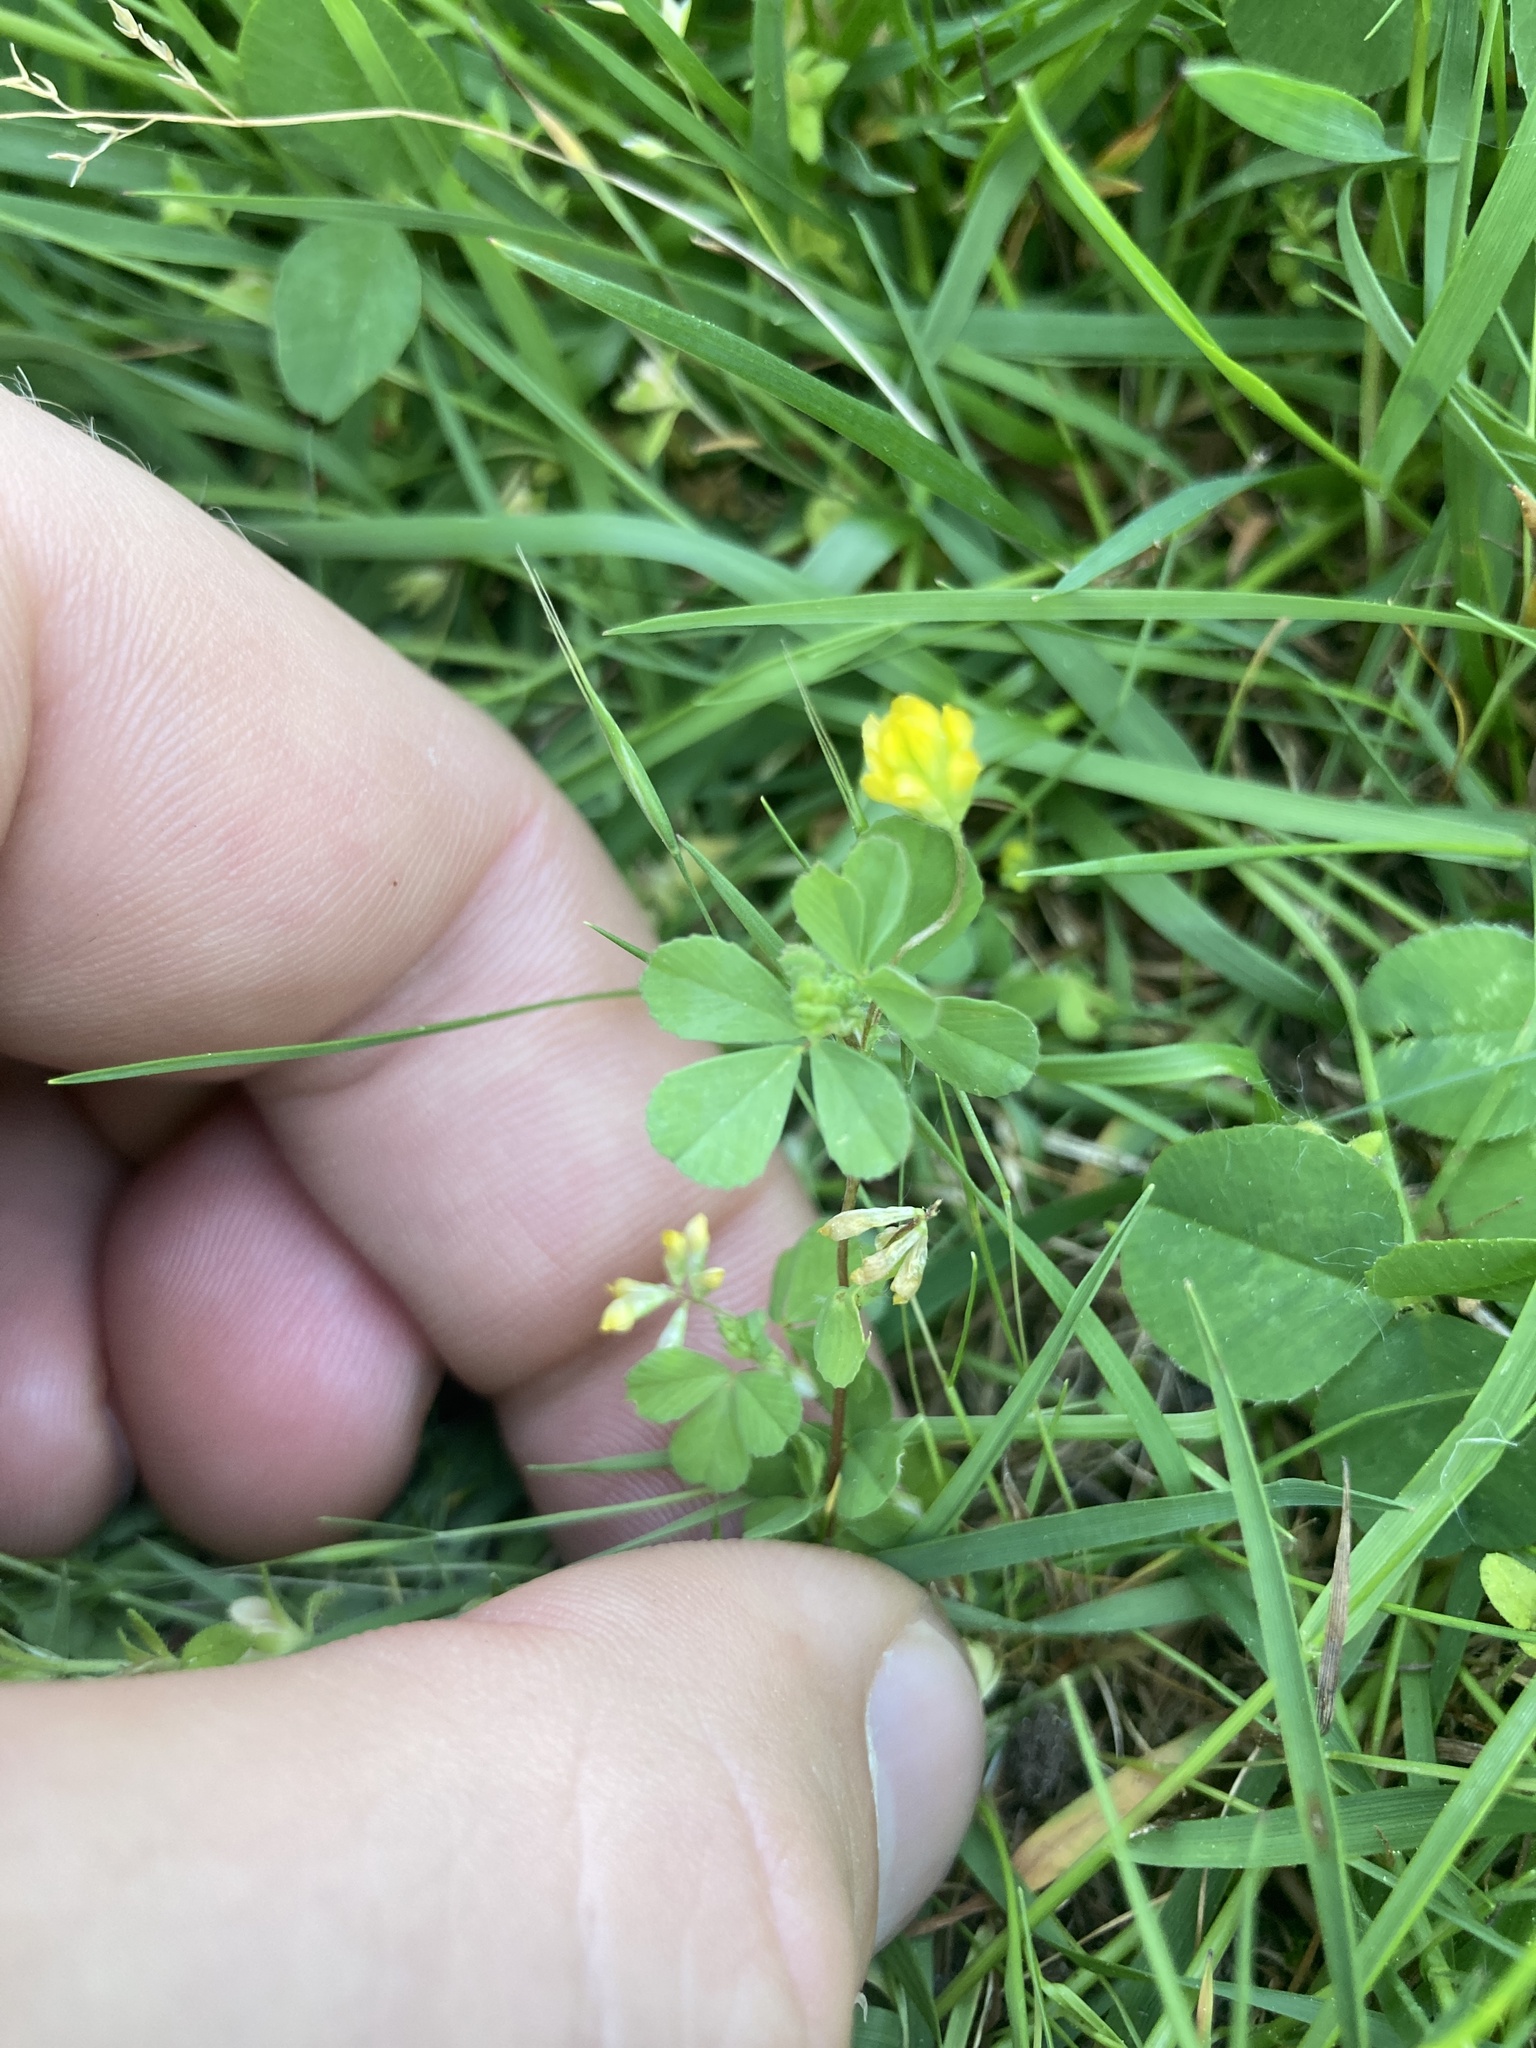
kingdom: Plantae
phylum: Tracheophyta
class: Magnoliopsida
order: Fabales
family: Fabaceae
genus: Trifolium
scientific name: Trifolium dubium
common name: Suckling clover
